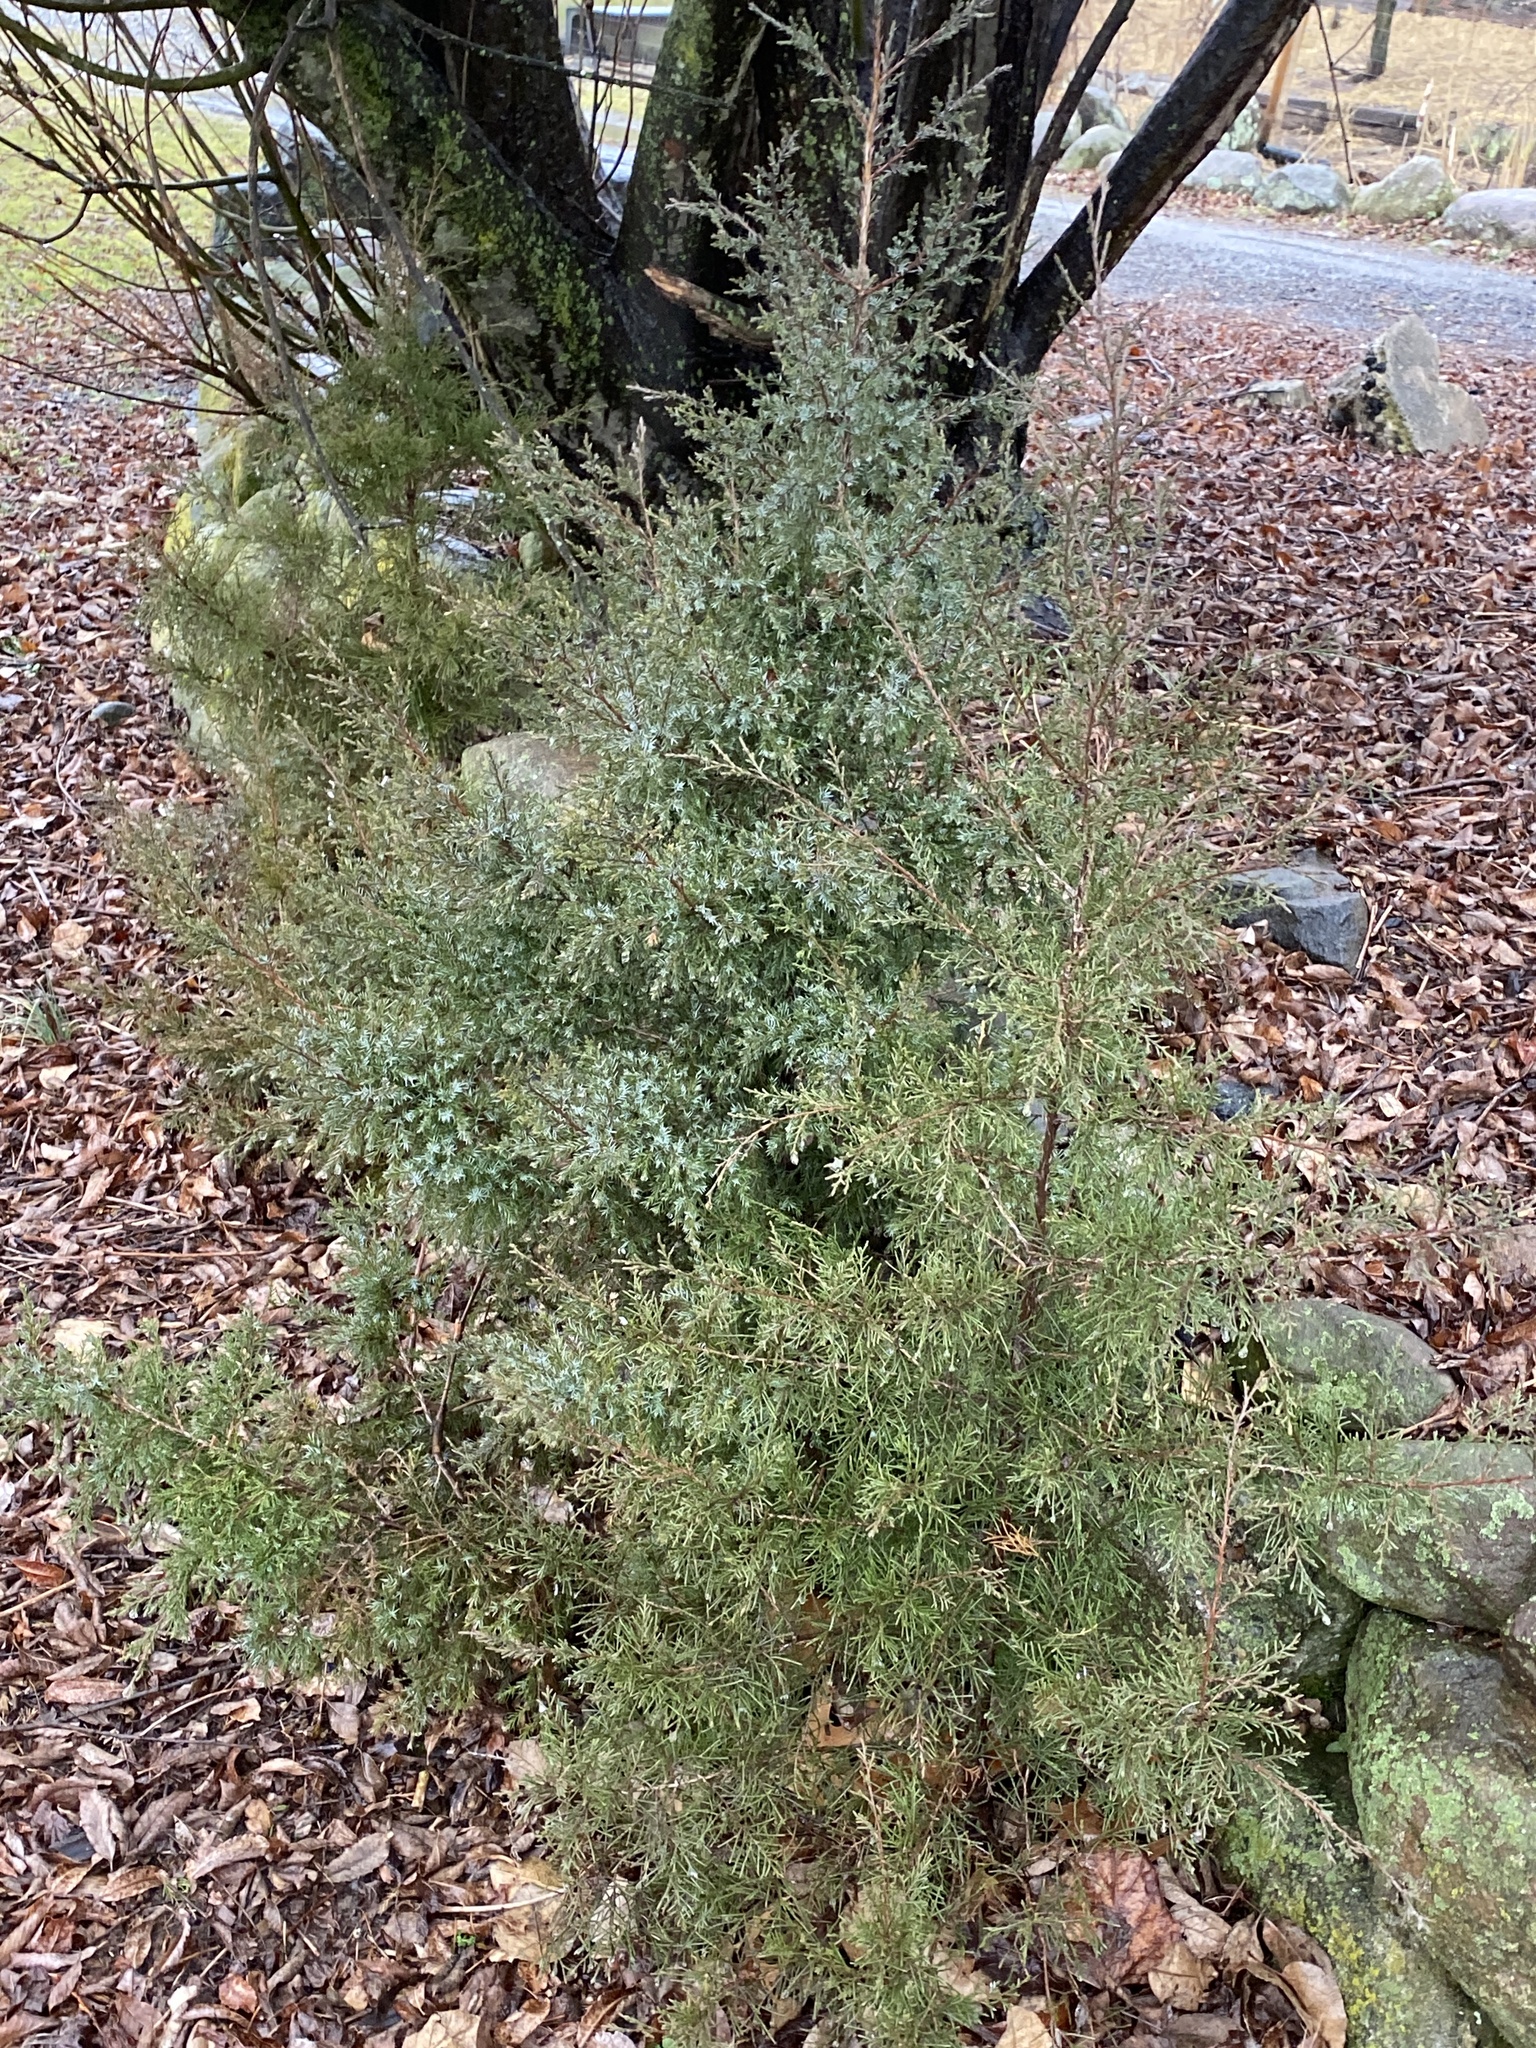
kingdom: Plantae
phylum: Tracheophyta
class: Pinopsida
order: Pinales
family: Cupressaceae
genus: Juniperus
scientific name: Juniperus virginiana
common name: Red juniper
